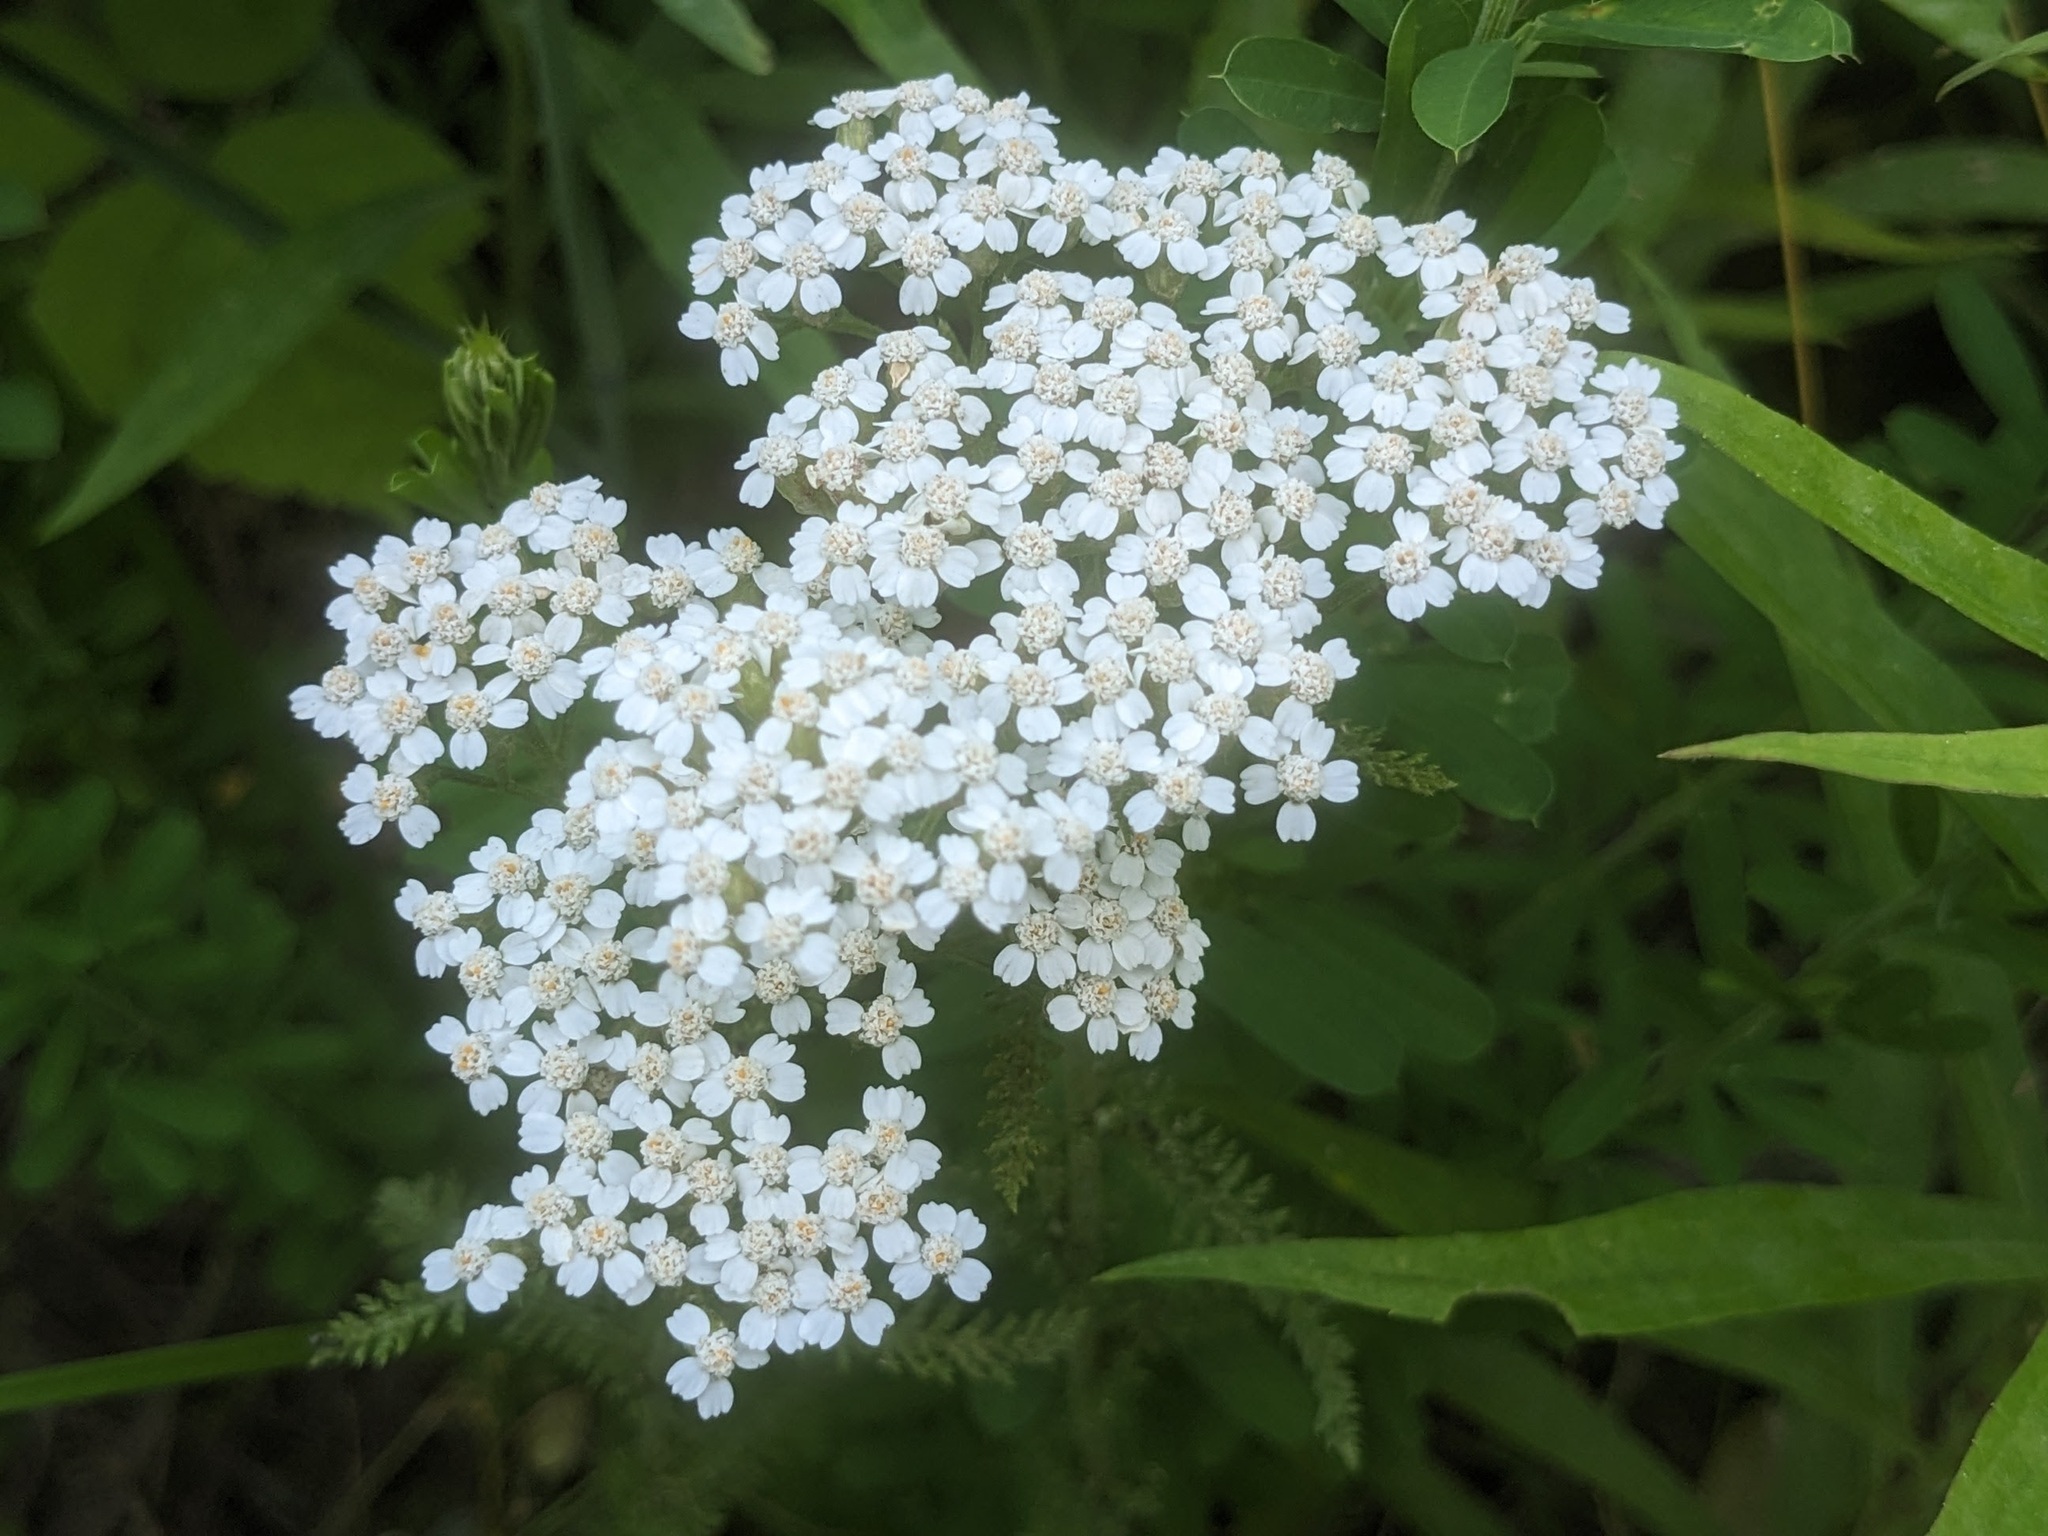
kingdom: Plantae
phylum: Tracheophyta
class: Magnoliopsida
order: Asterales
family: Asteraceae
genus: Achillea
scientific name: Achillea millefolium
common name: Yarrow
